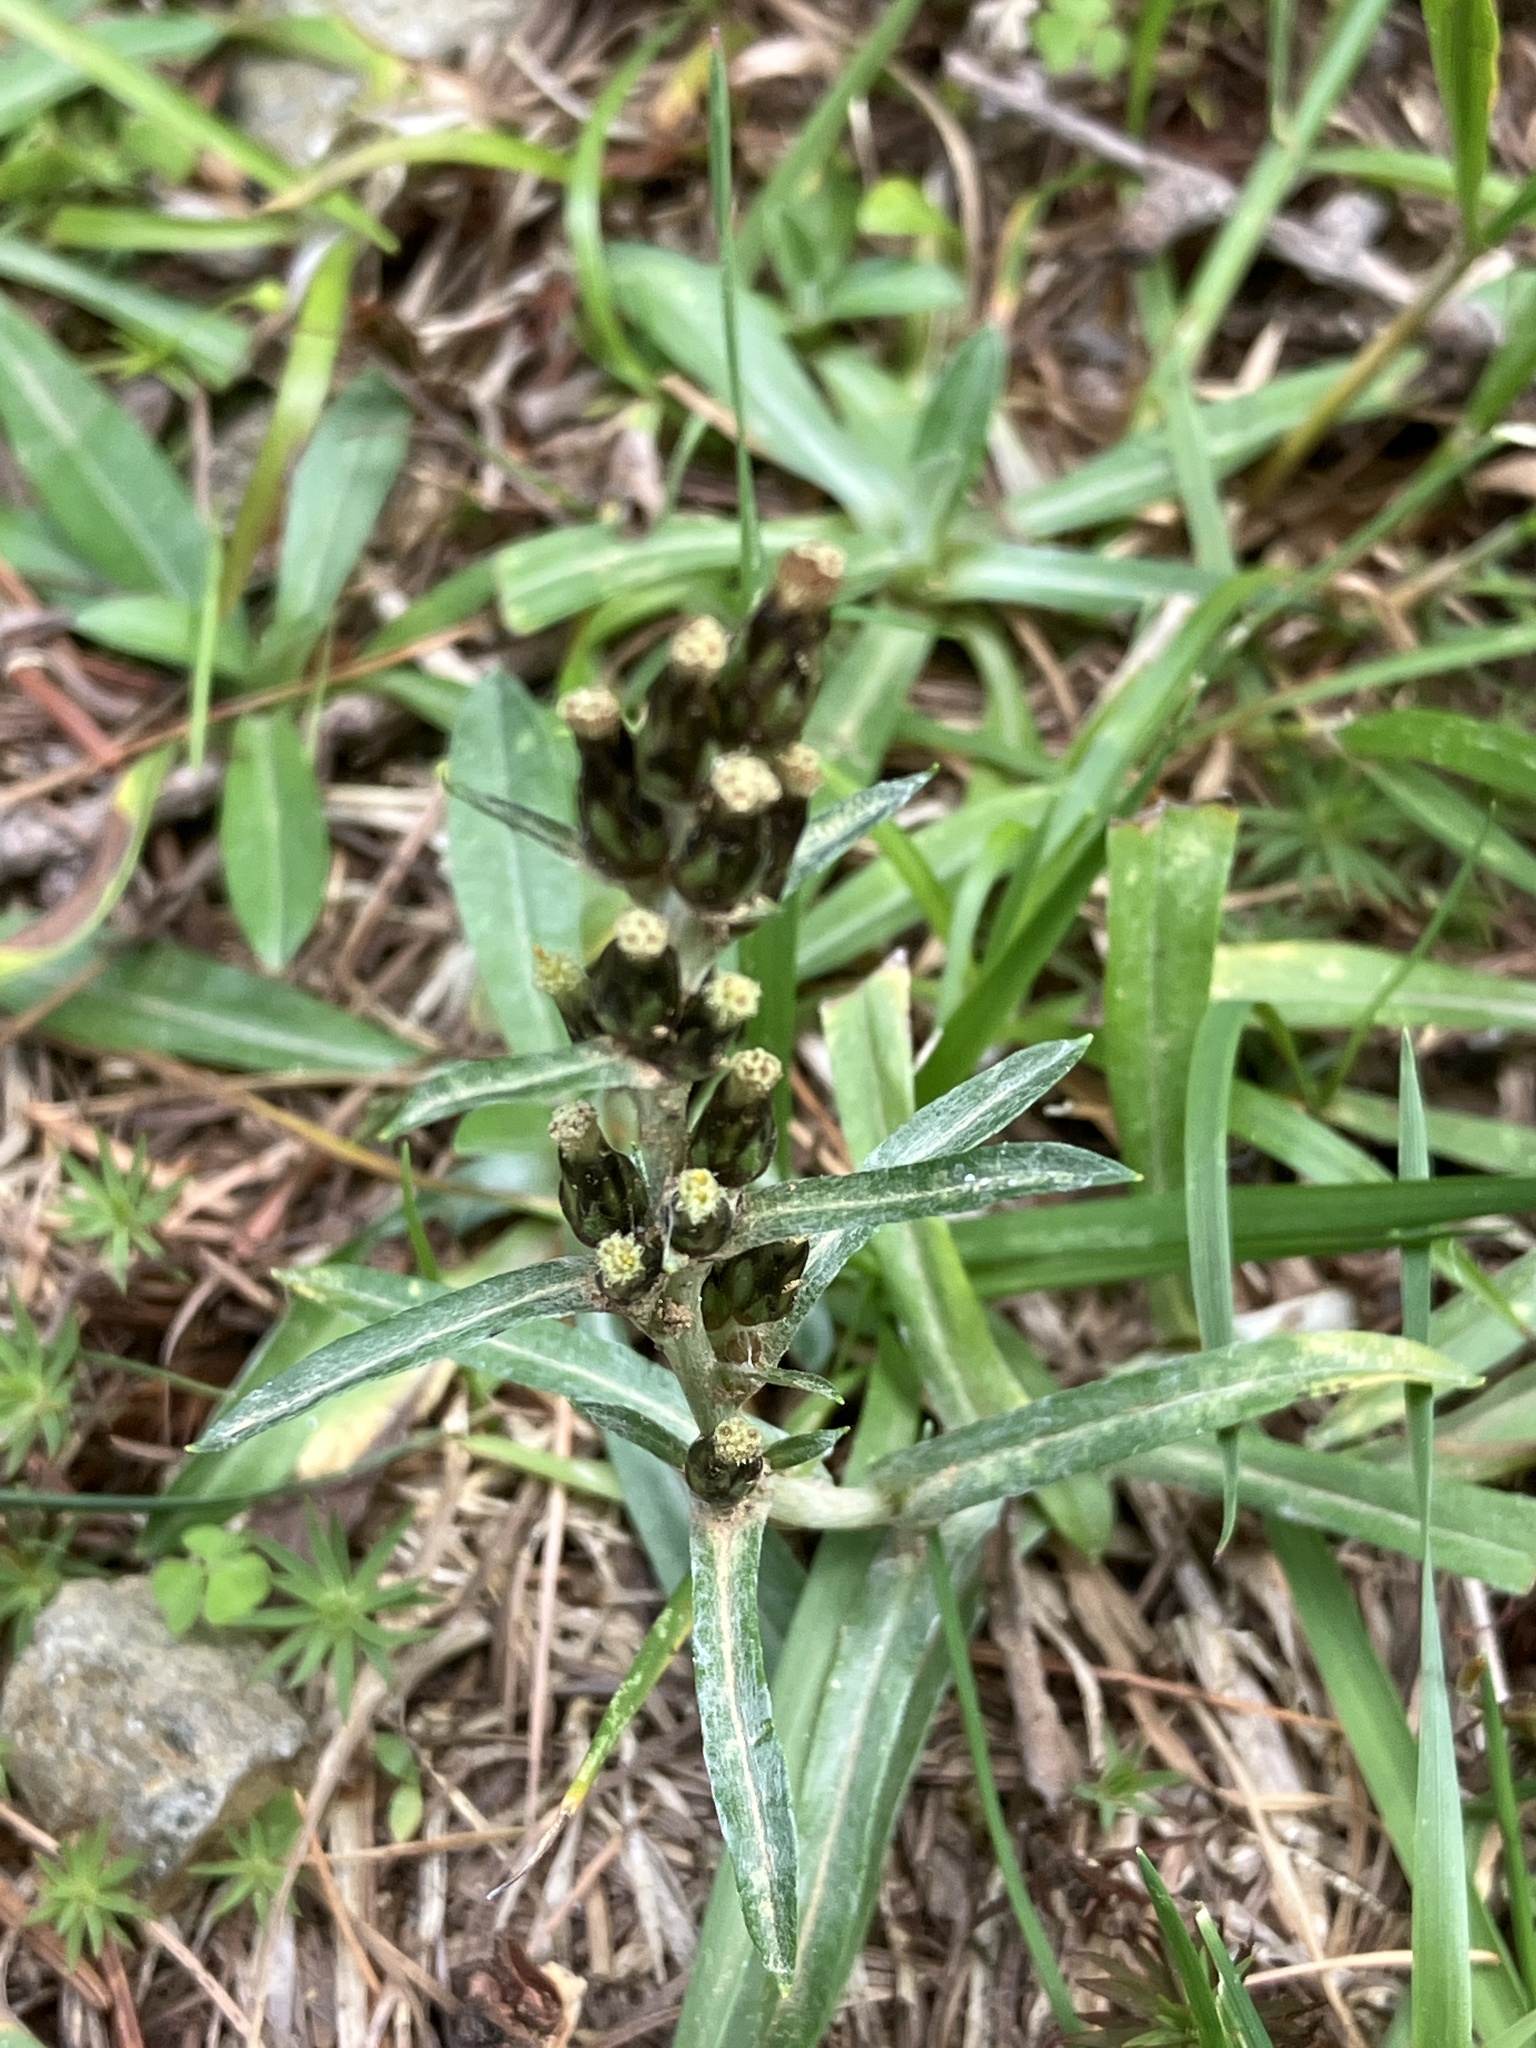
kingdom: Plantae
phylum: Tracheophyta
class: Magnoliopsida
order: Asterales
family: Asteraceae
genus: Omalotheca
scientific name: Omalotheca sylvatica
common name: Heath cudweed
